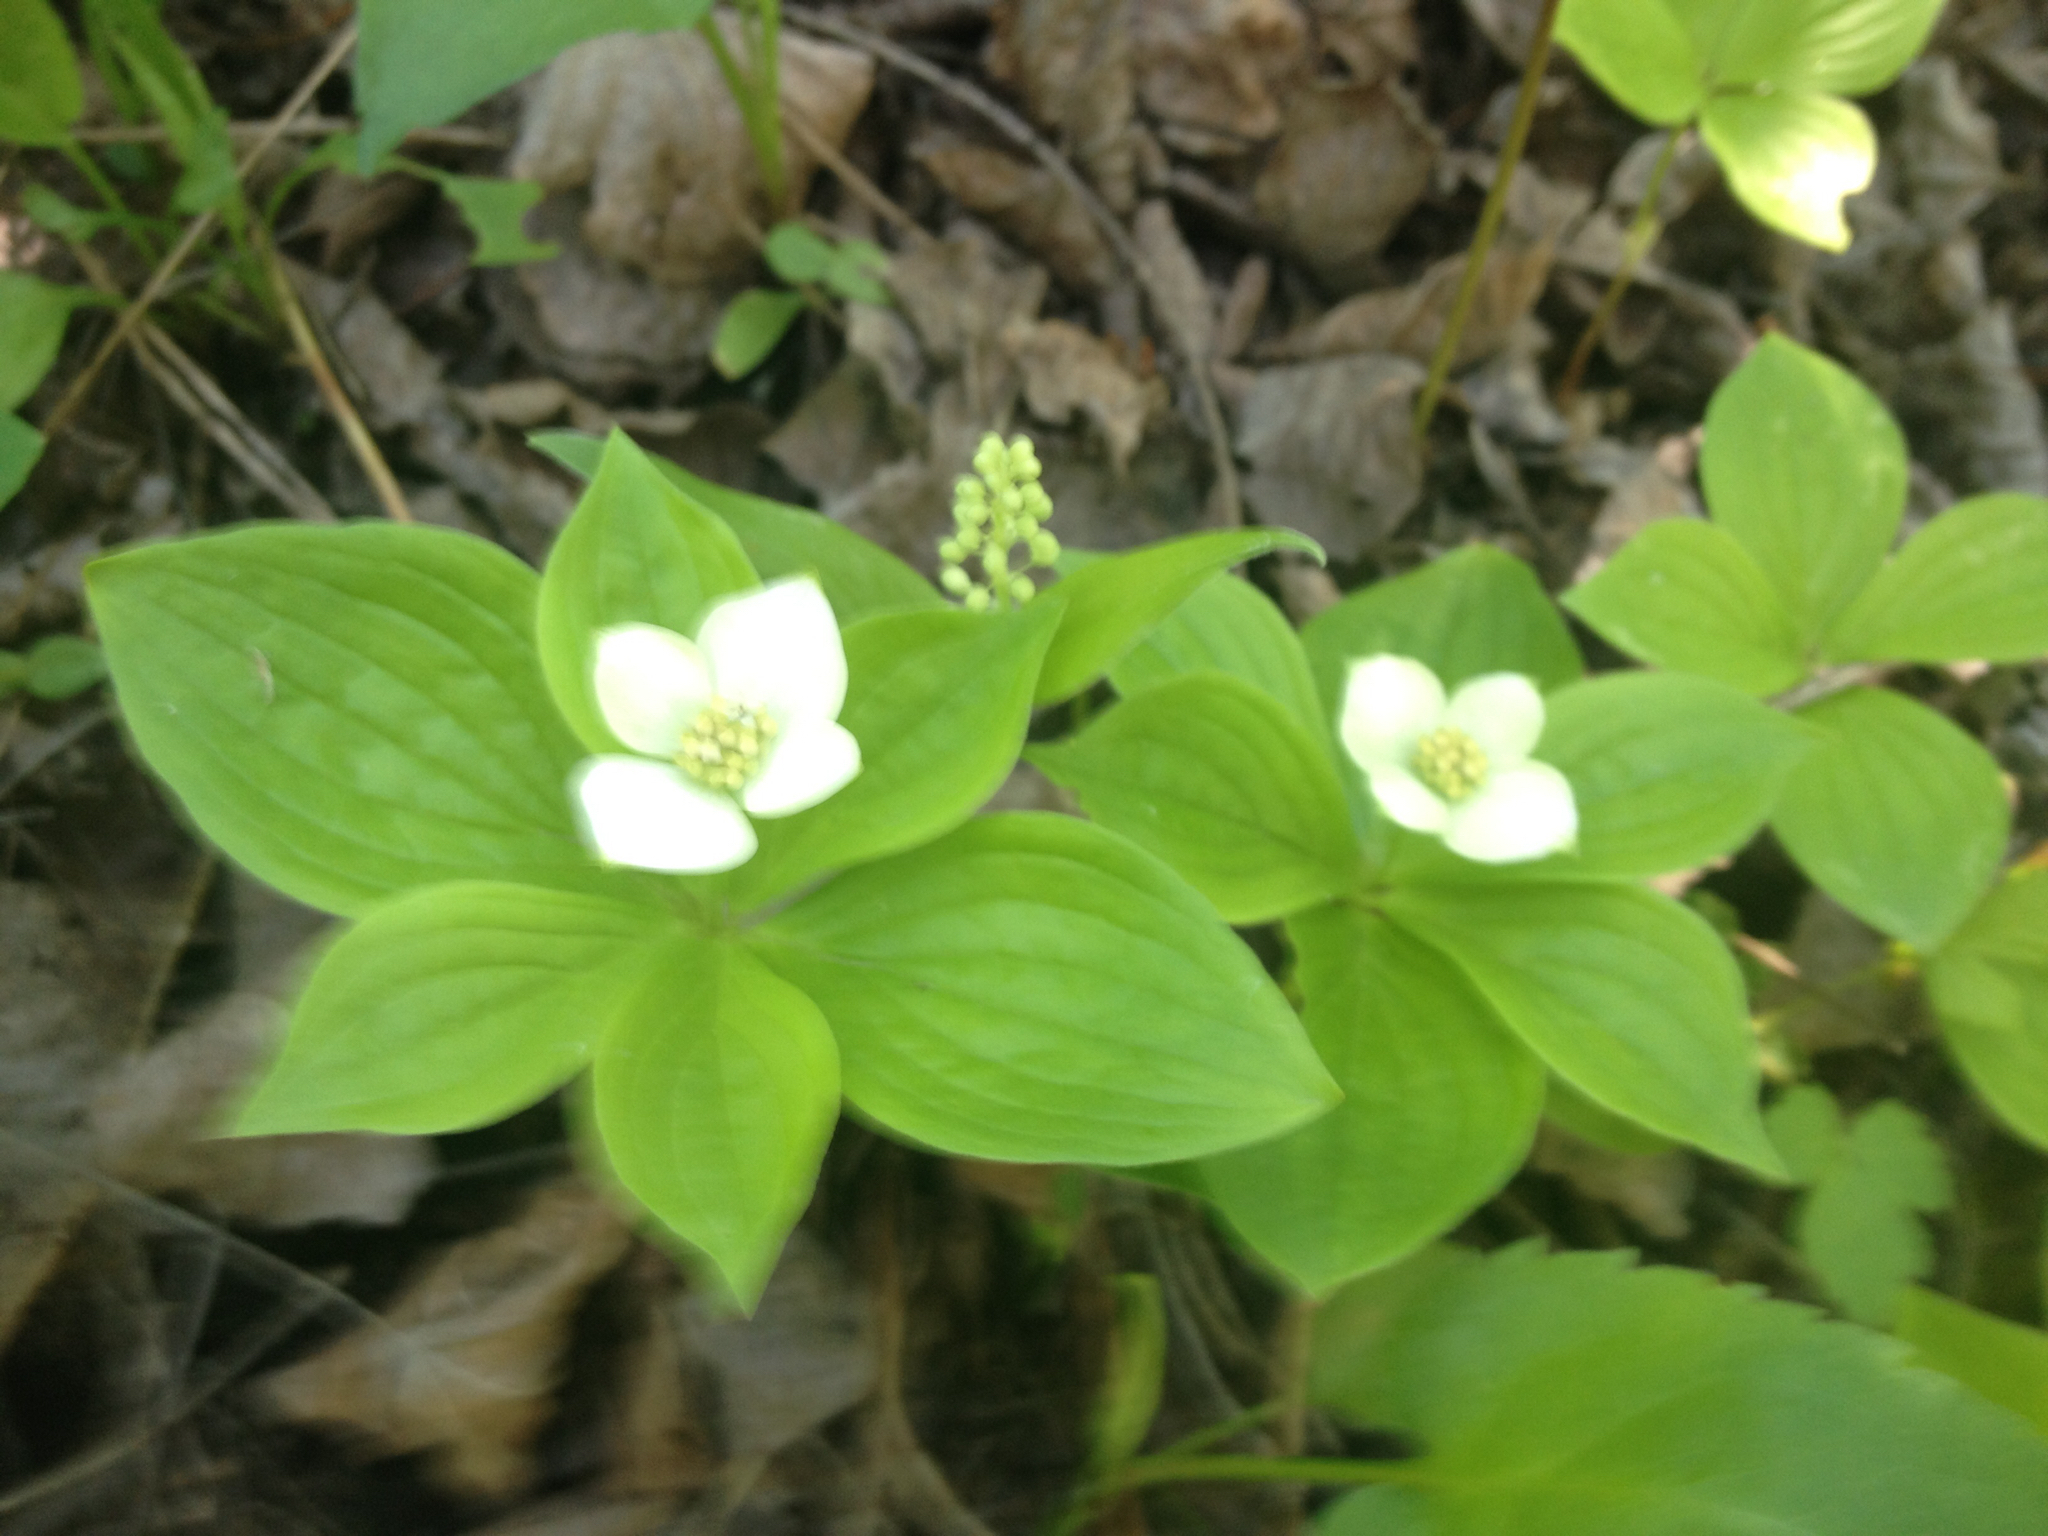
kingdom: Plantae
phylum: Tracheophyta
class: Magnoliopsida
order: Cornales
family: Cornaceae
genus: Cornus
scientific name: Cornus canadensis
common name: Creeping dogwood
